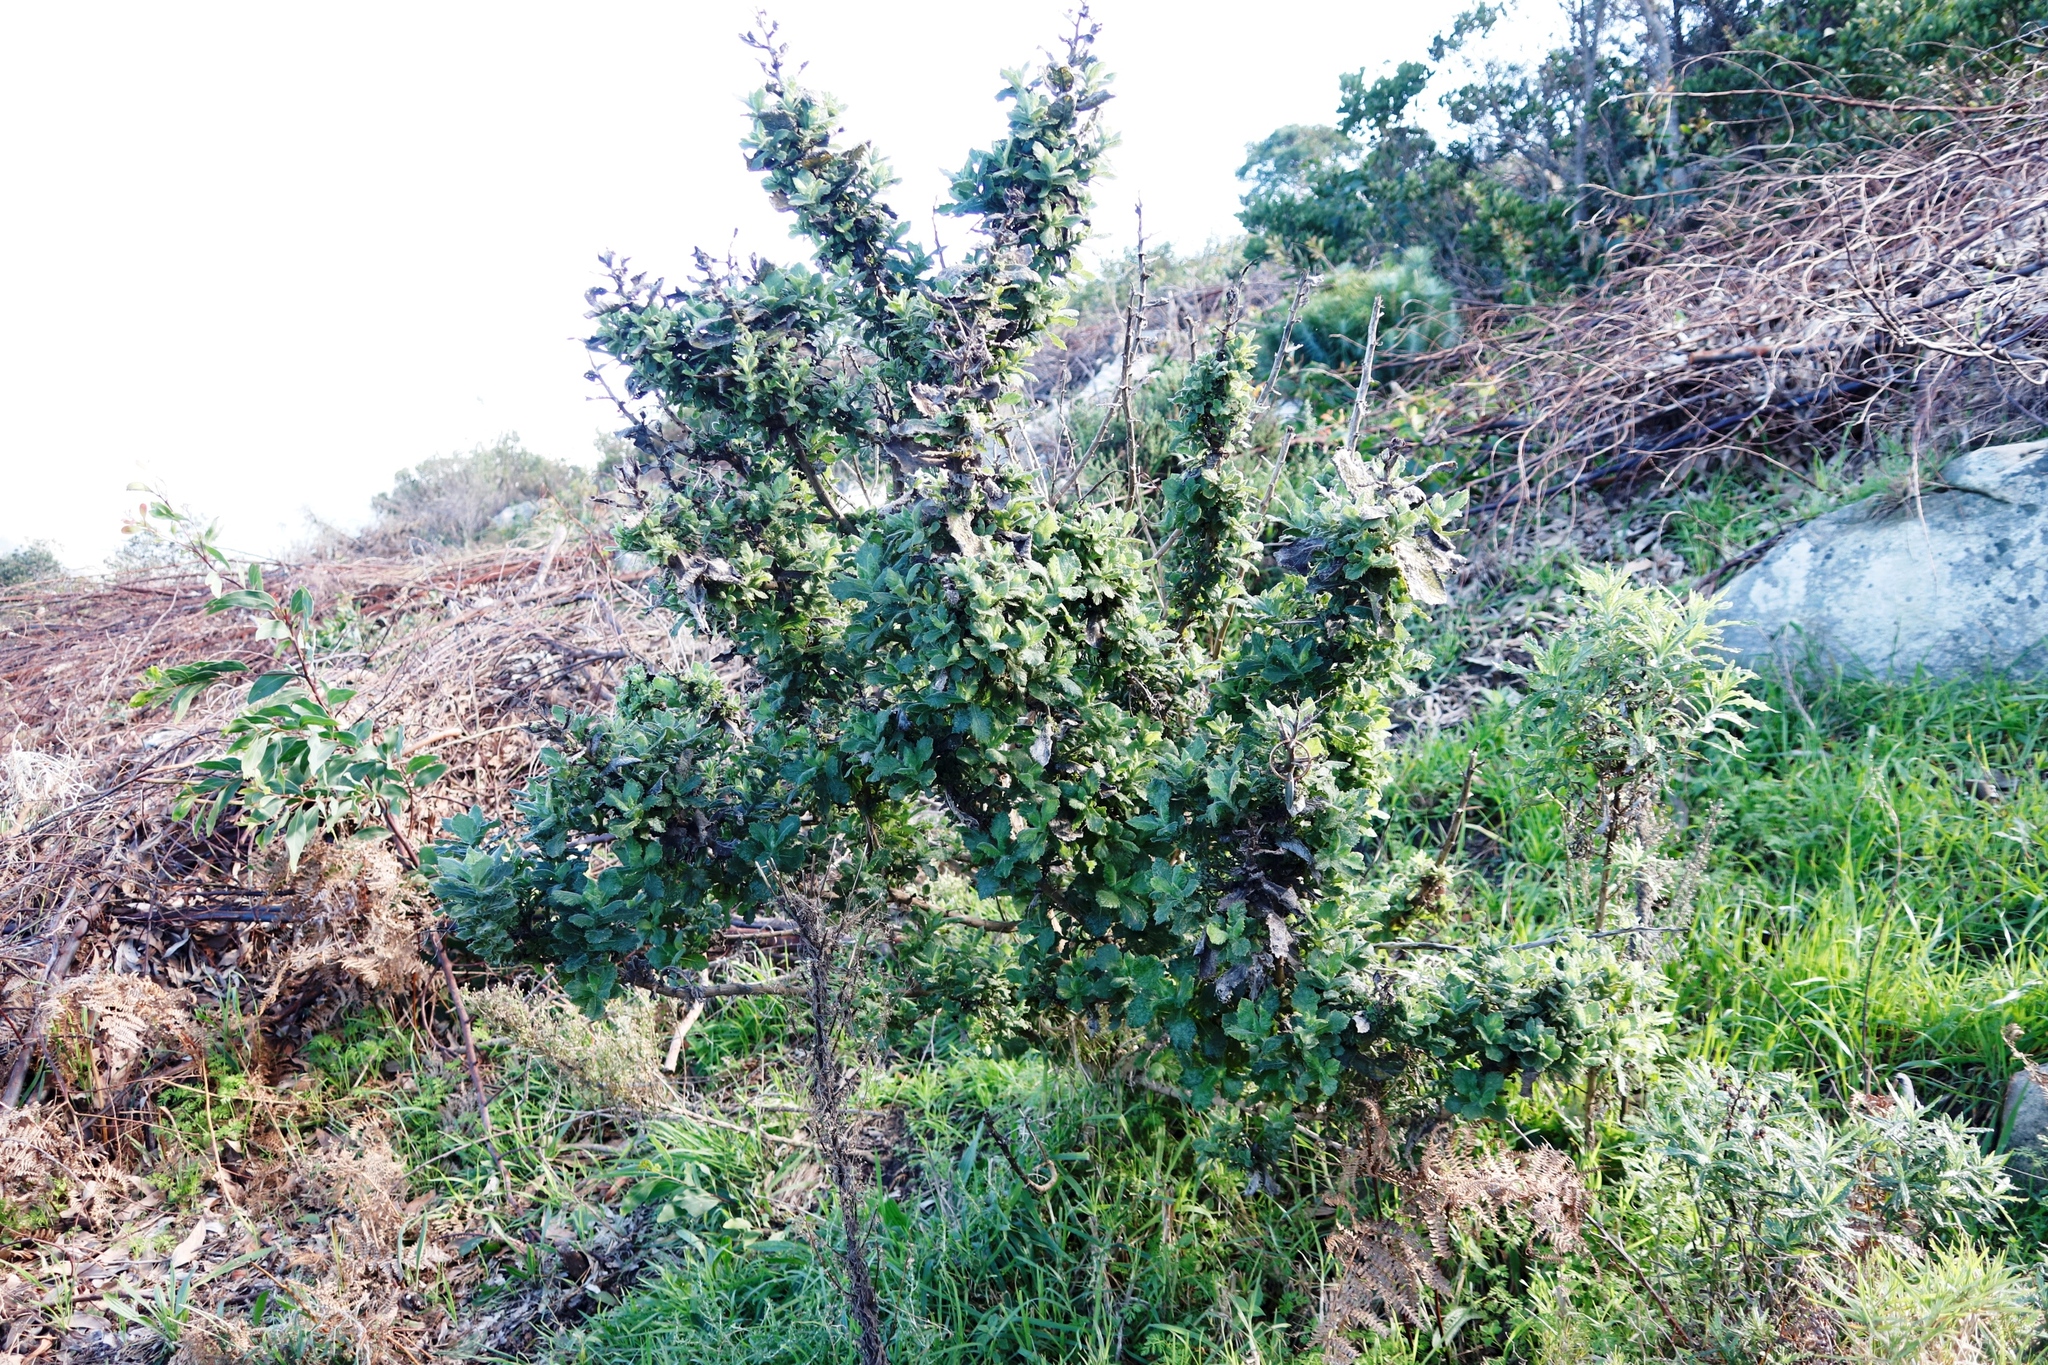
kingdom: Plantae
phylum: Tracheophyta
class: Magnoliopsida
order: Asterales
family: Asteraceae
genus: Senecio
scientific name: Senecio rigidus
